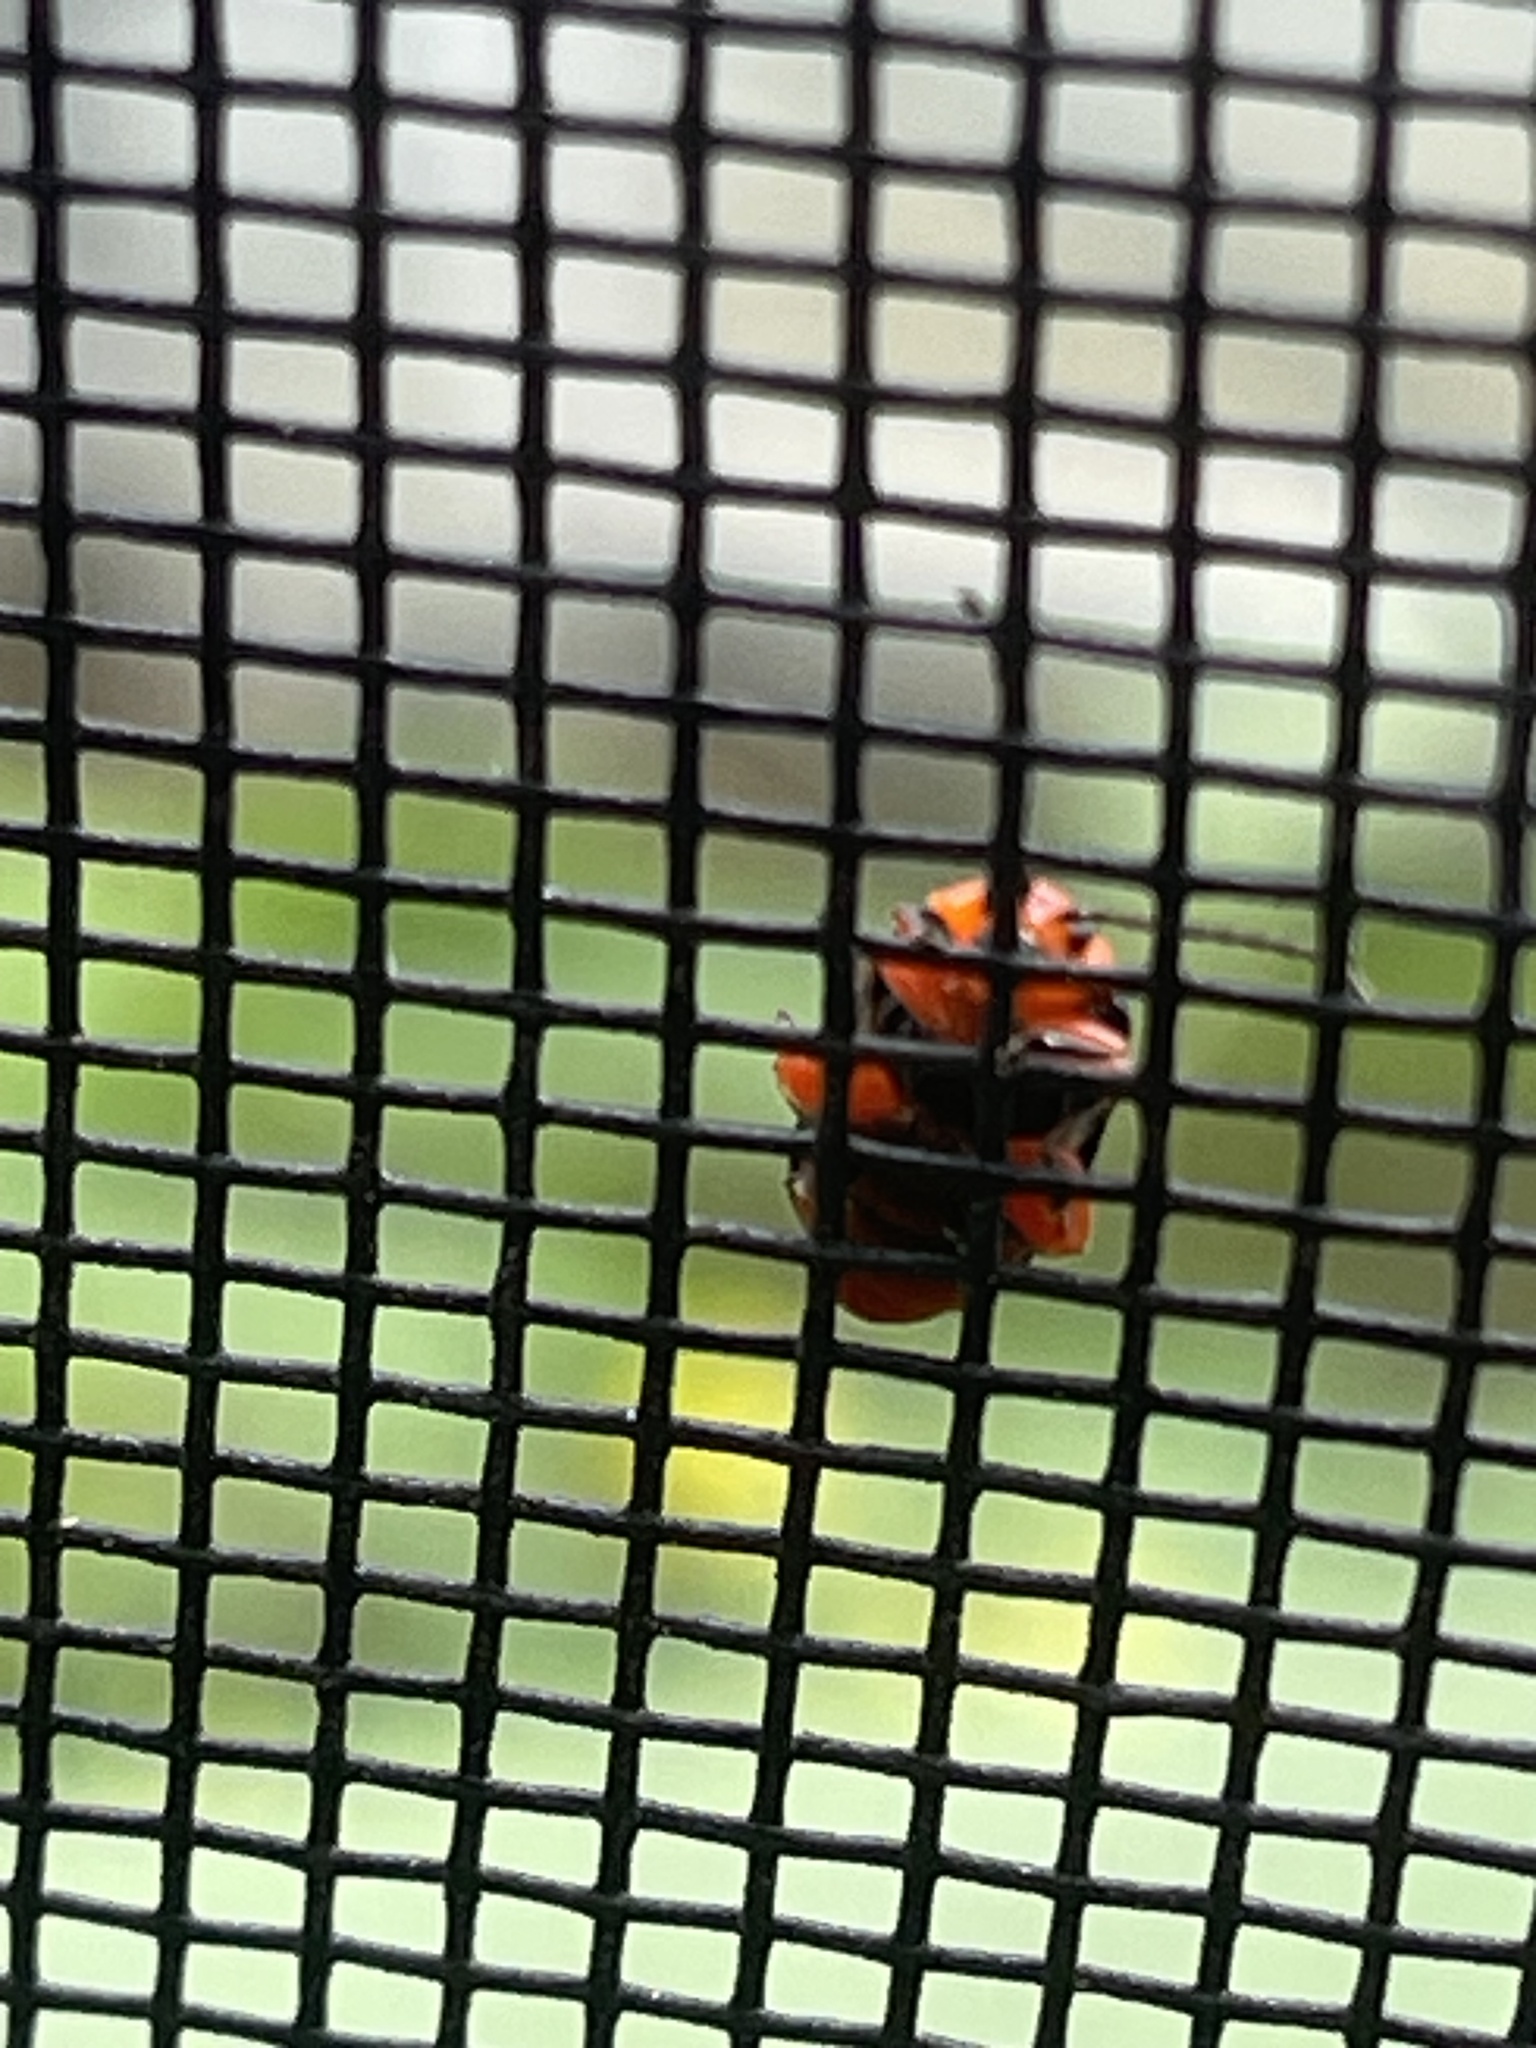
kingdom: Animalia
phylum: Arthropoda
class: Insecta
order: Coleoptera
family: Chrysomelidae
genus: Asphaera
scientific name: Asphaera lustrans
